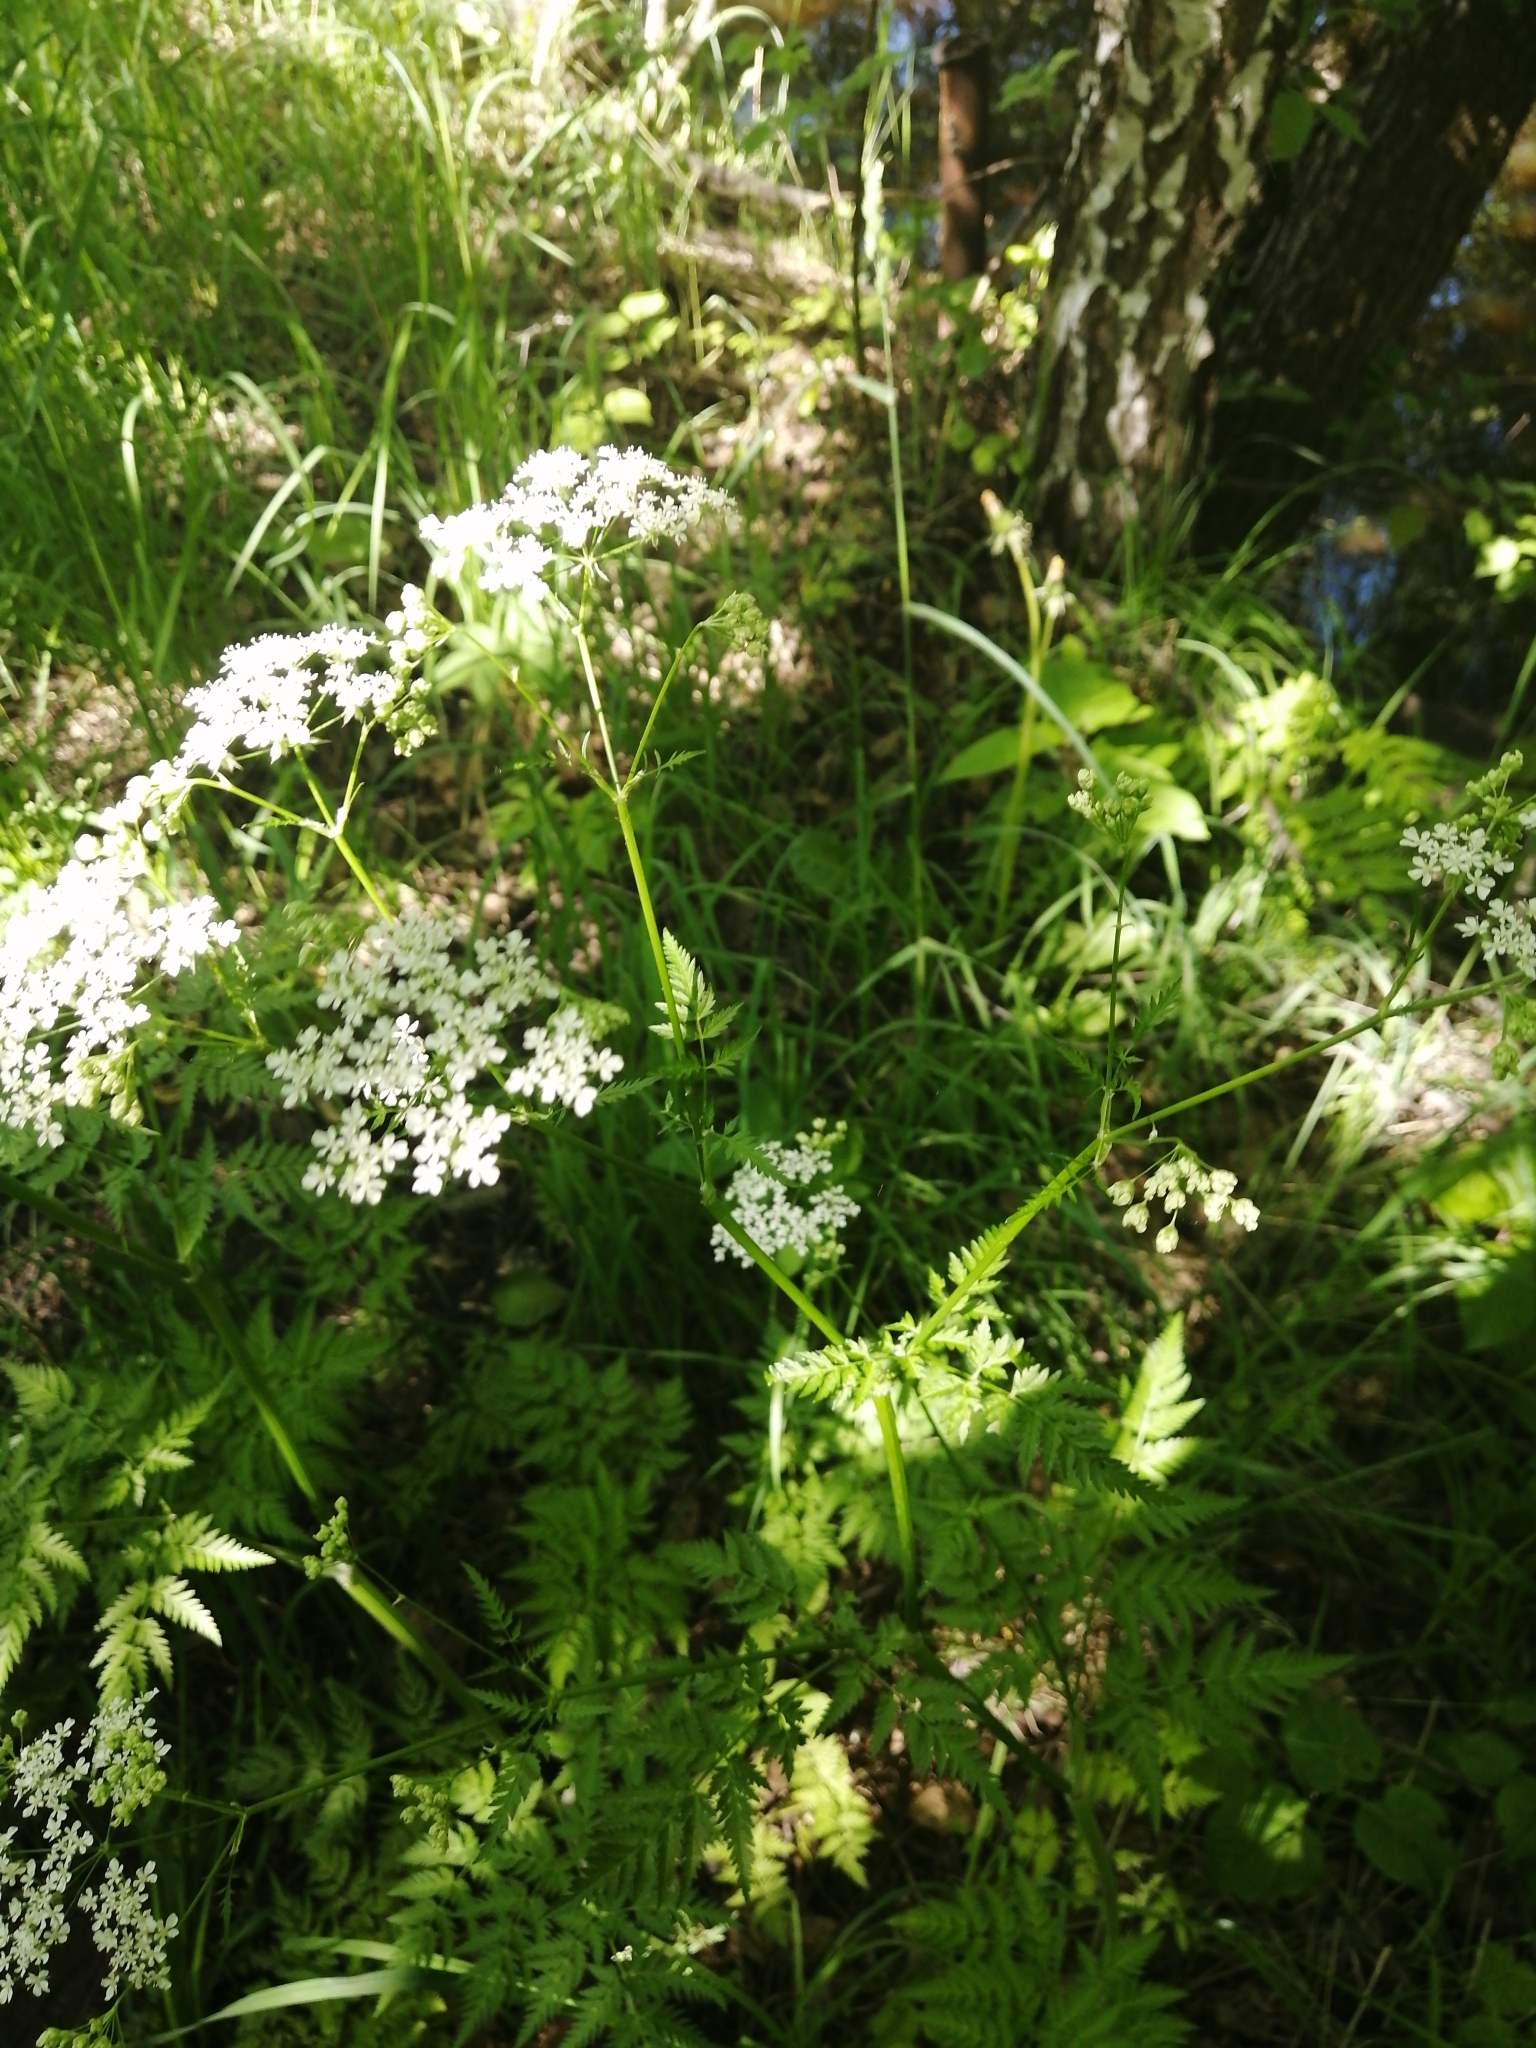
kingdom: Plantae
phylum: Tracheophyta
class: Magnoliopsida
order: Apiales
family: Apiaceae
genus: Anthriscus
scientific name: Anthriscus sylvestris
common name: Cow parsley
